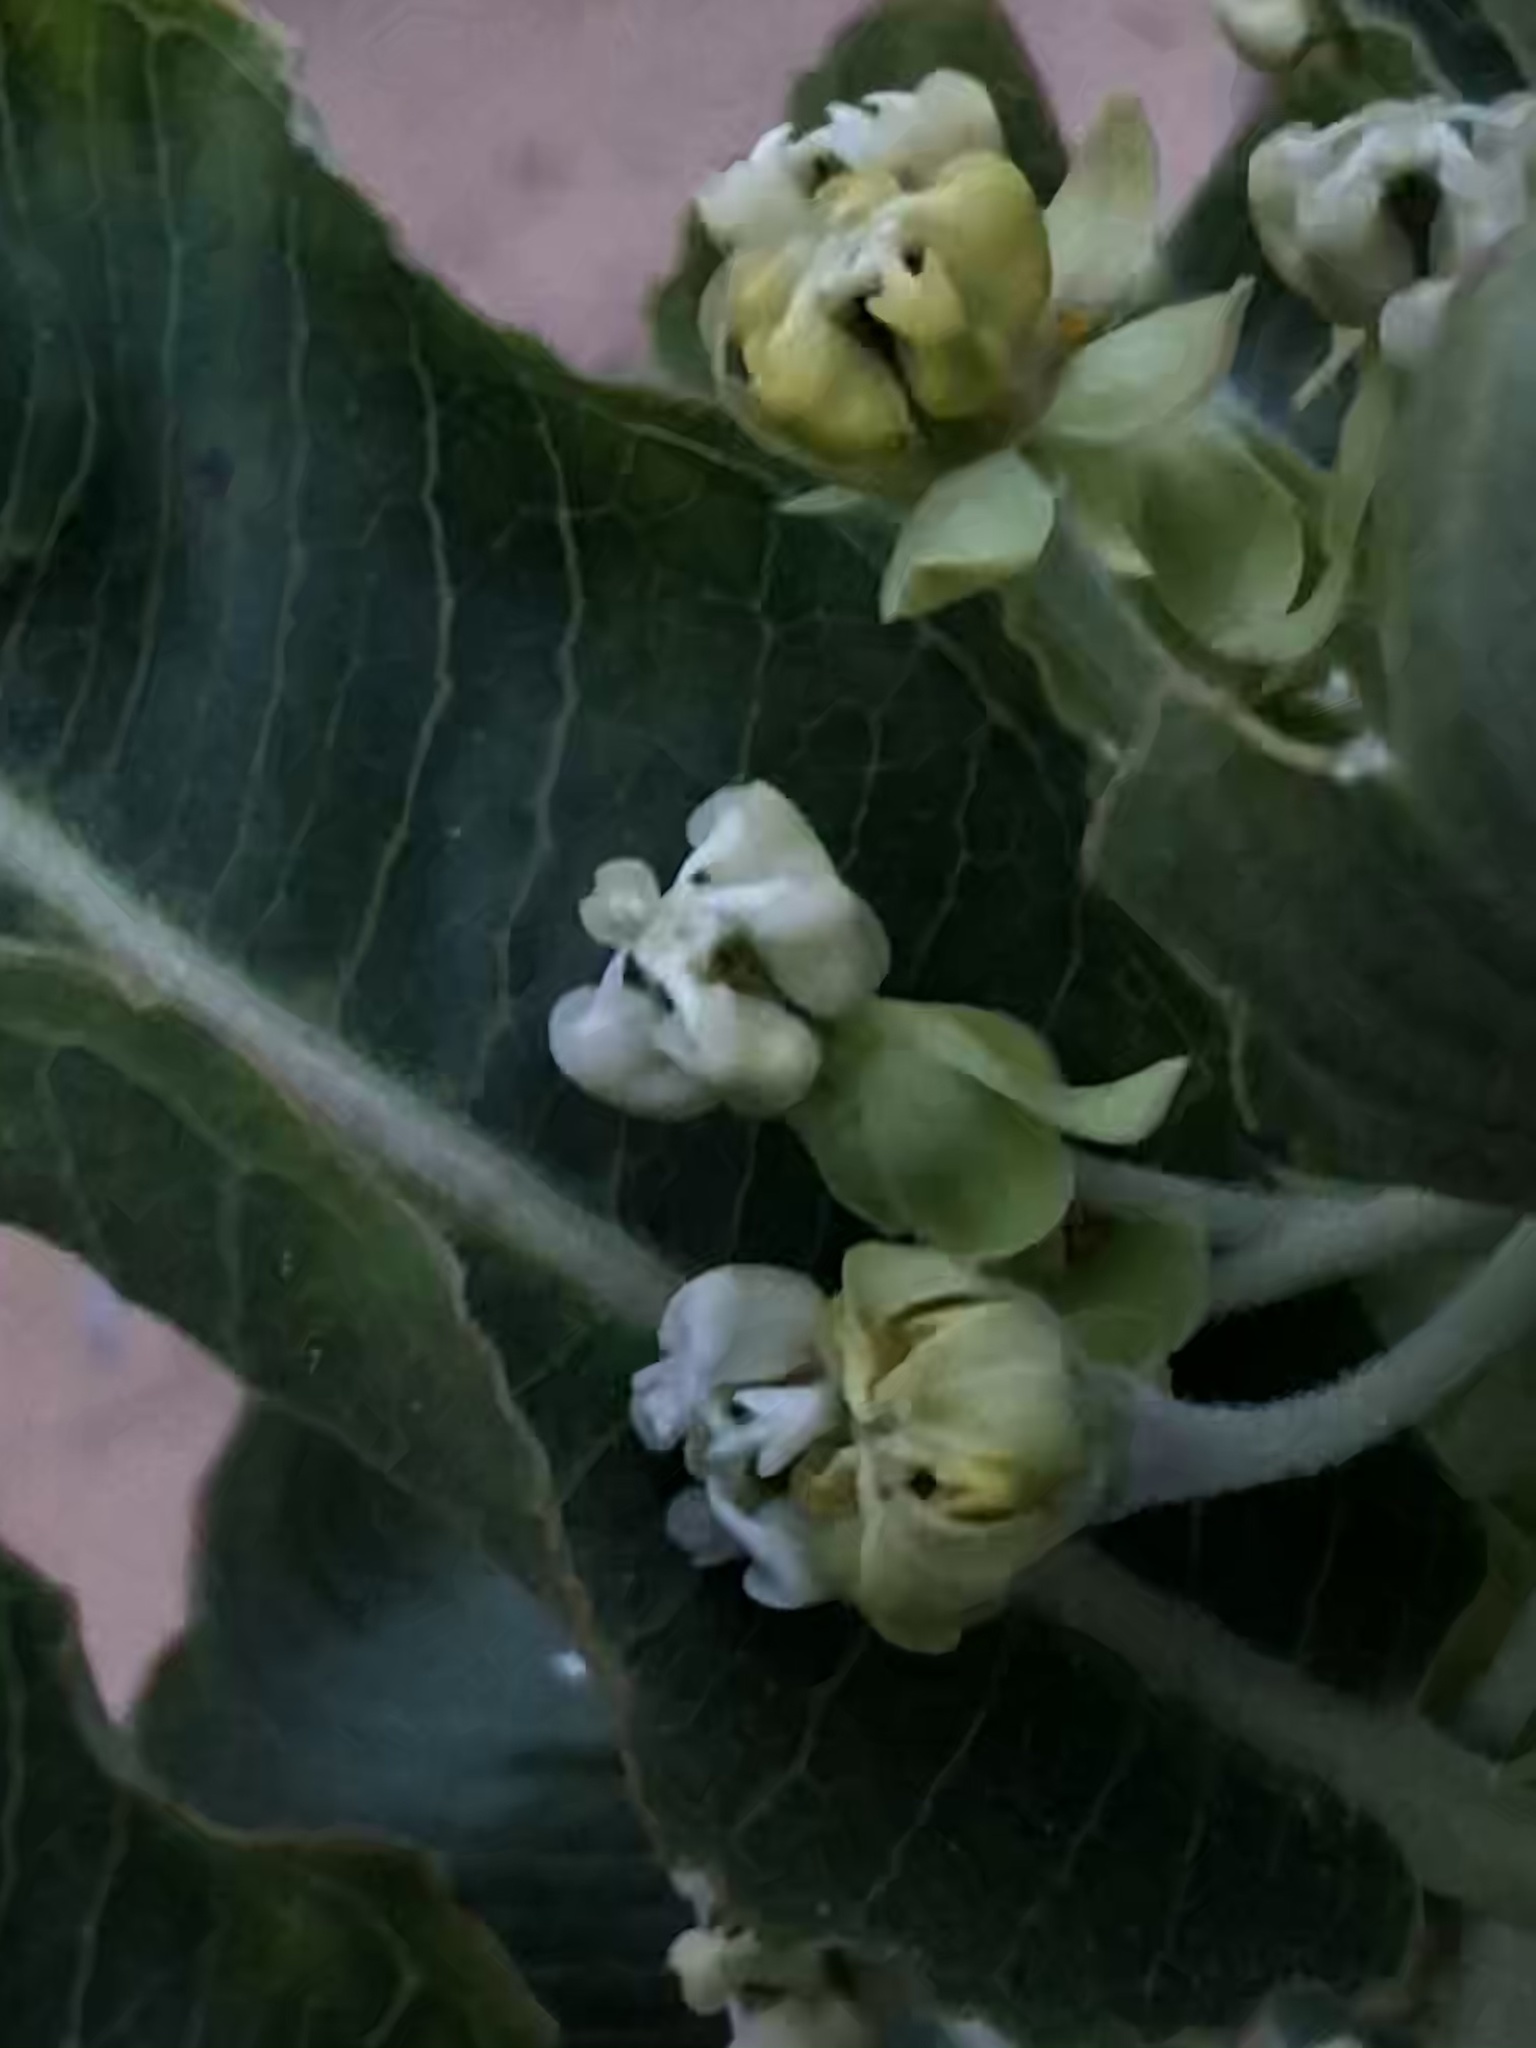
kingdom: Plantae
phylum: Tracheophyta
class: Magnoliopsida
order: Gentianales
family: Apocynaceae
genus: Asclepias
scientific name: Asclepias arenaria
